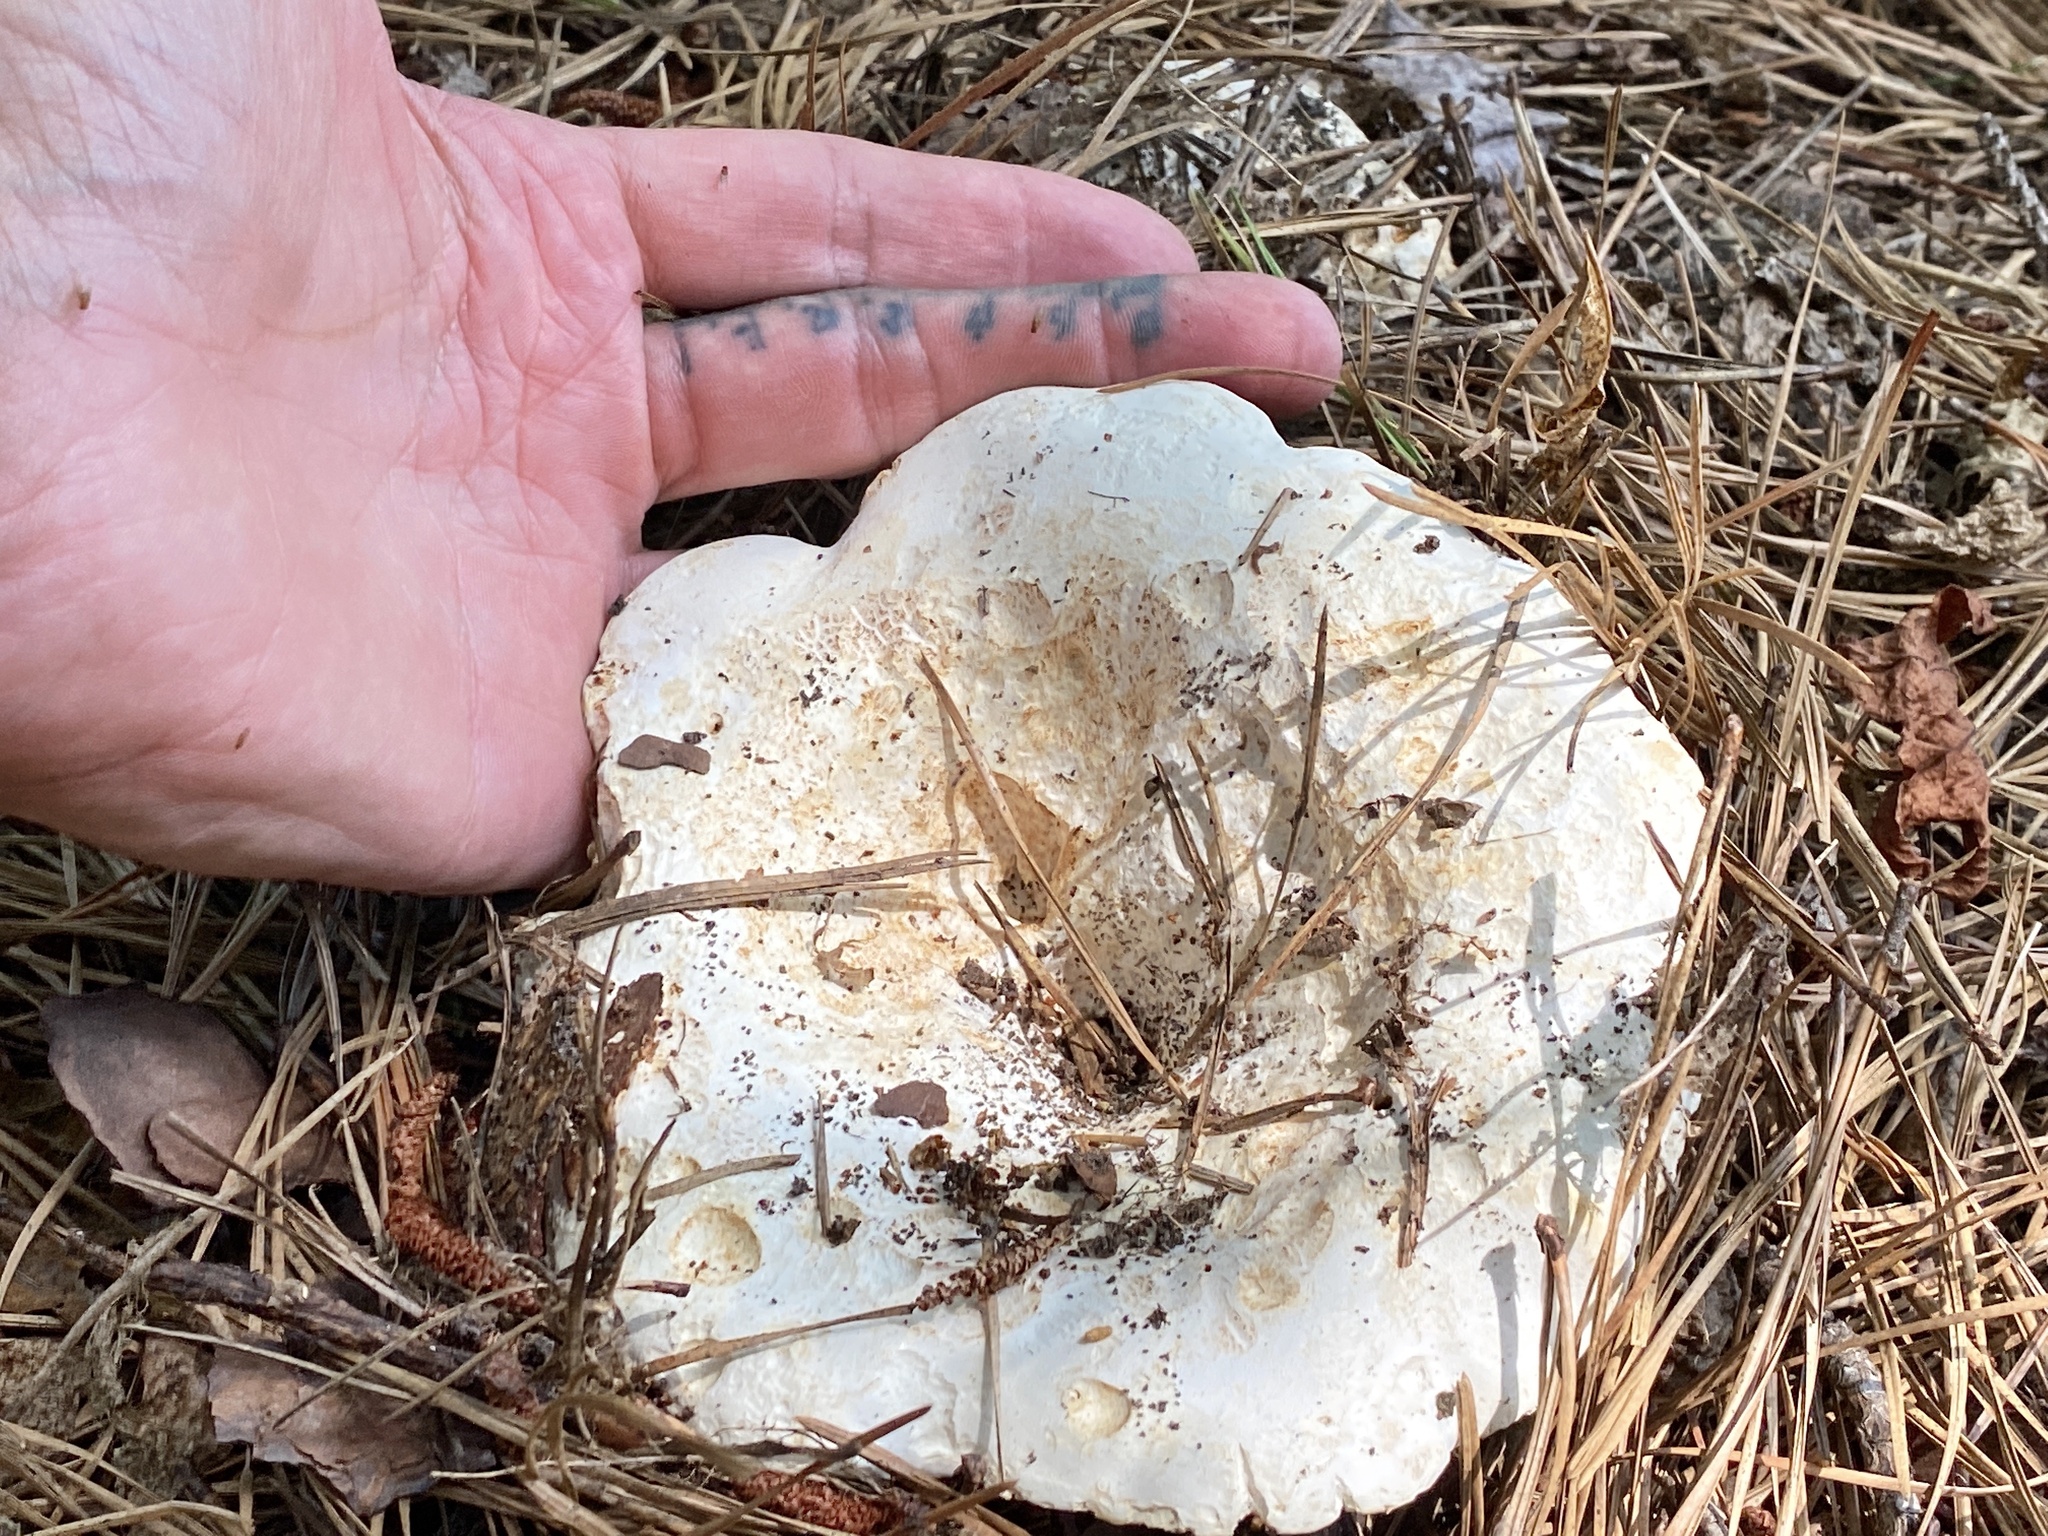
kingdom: Fungi
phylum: Basidiomycota
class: Agaricomycetes
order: Russulales
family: Russulaceae
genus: Russula
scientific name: Russula brevipes
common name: Short-stemmed russula
